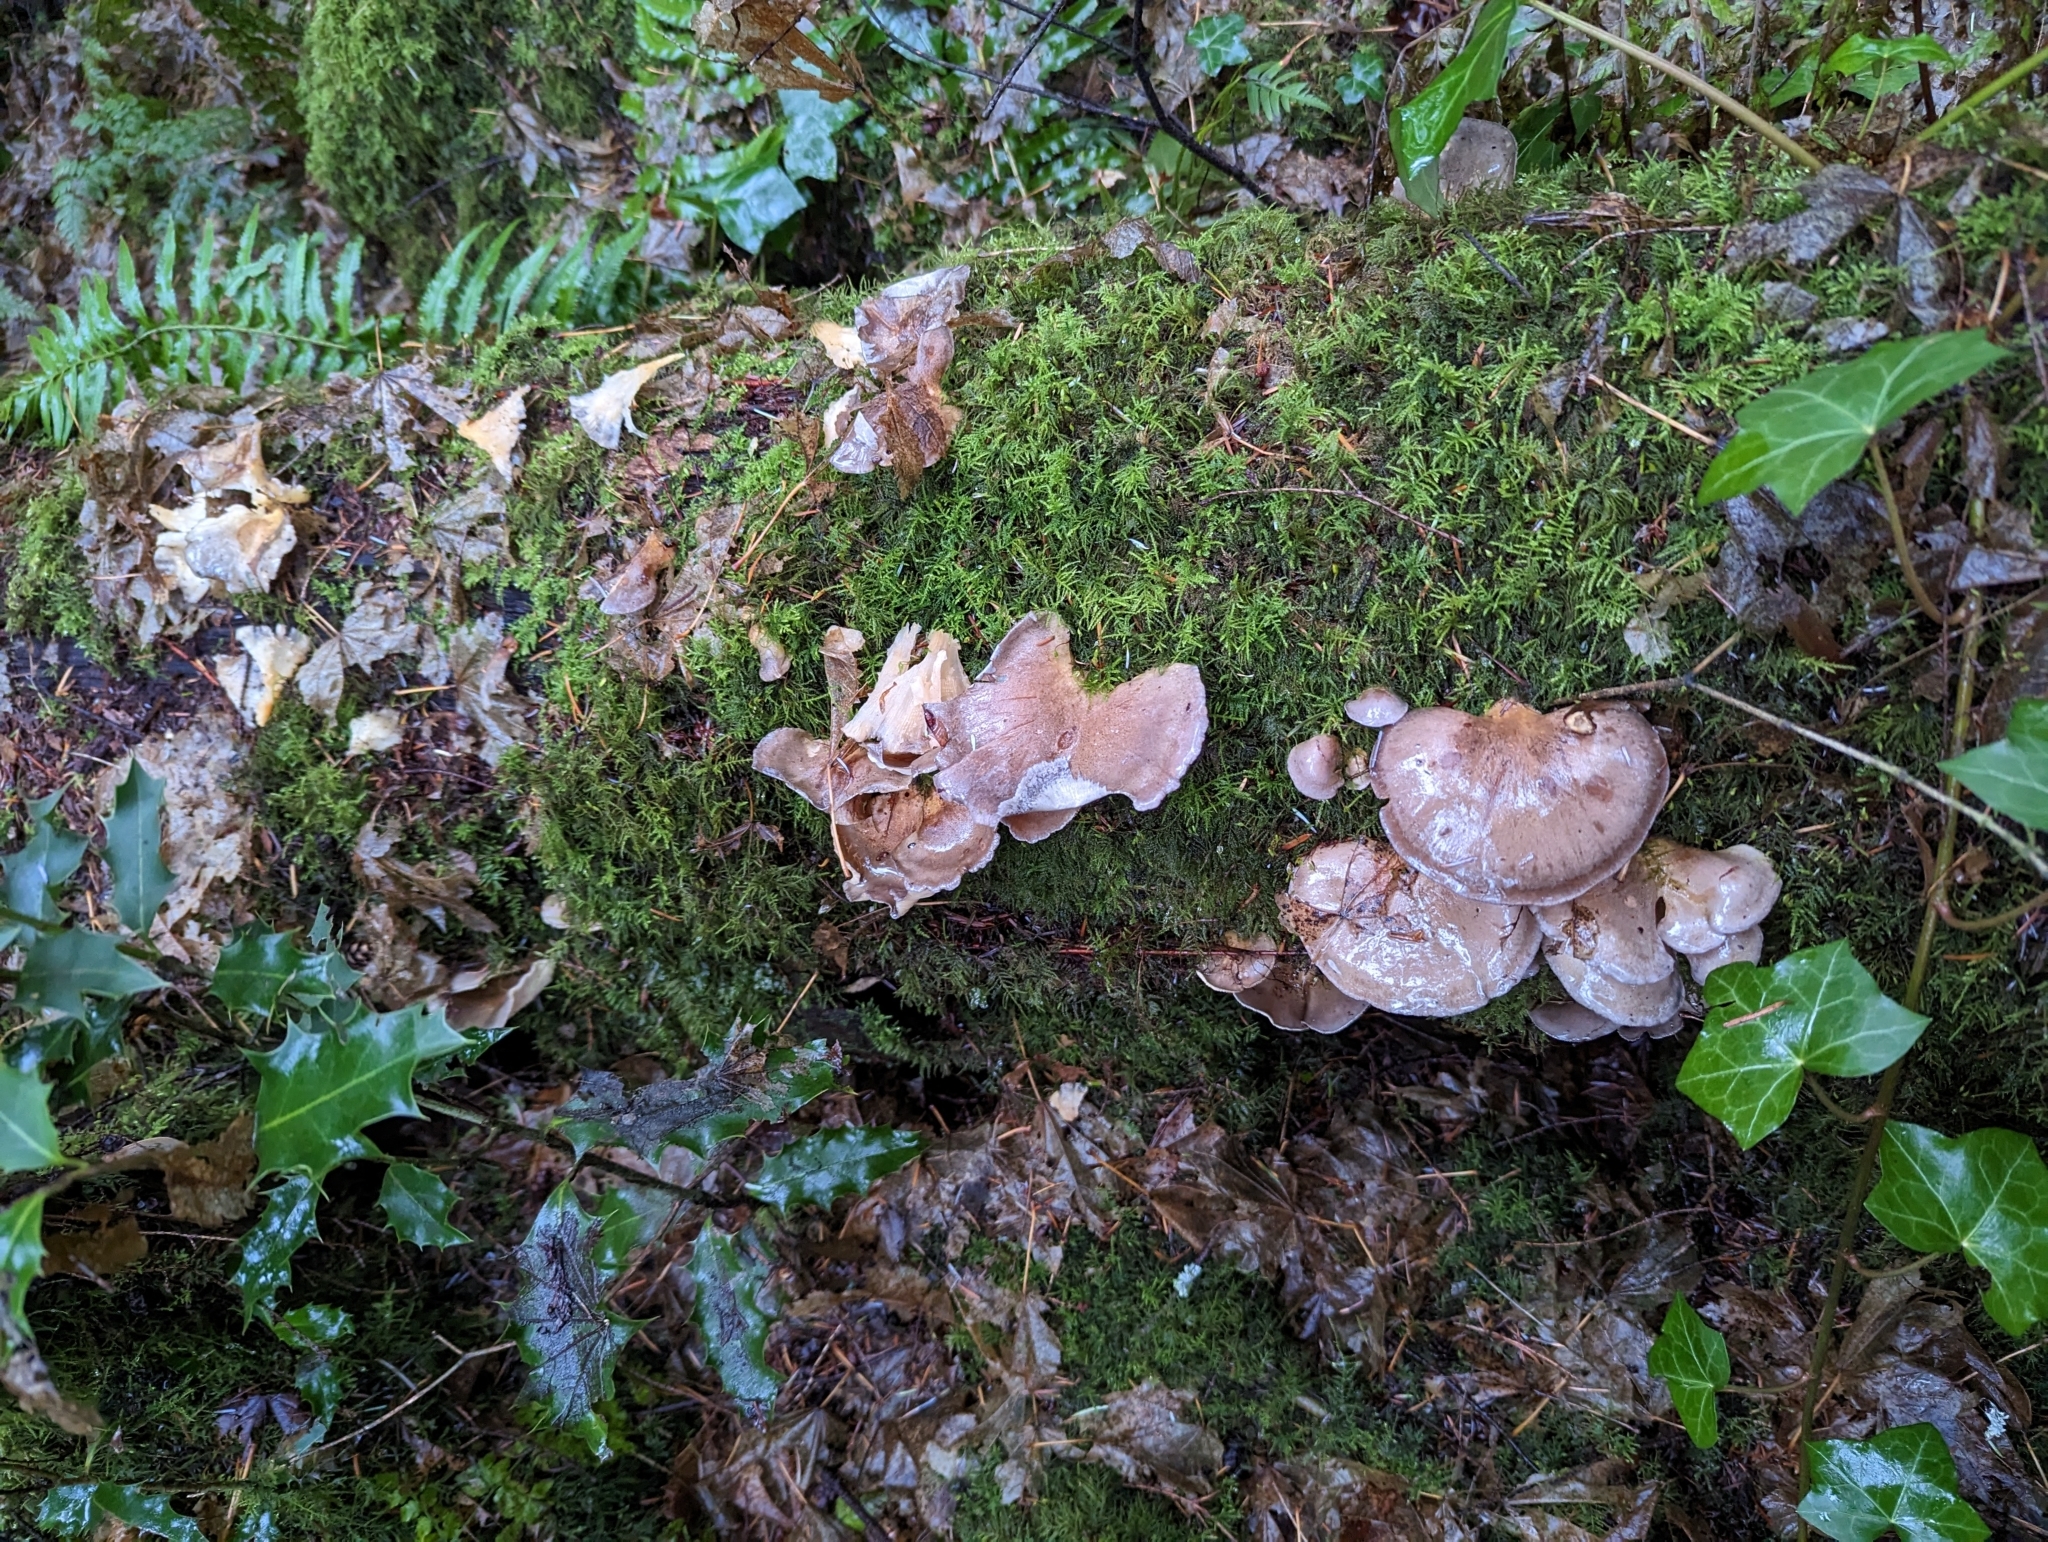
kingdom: Fungi
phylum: Basidiomycota
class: Agaricomycetes
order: Agaricales
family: Sarcomyxaceae
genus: Sarcomyxa
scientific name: Sarcomyxa serotina
